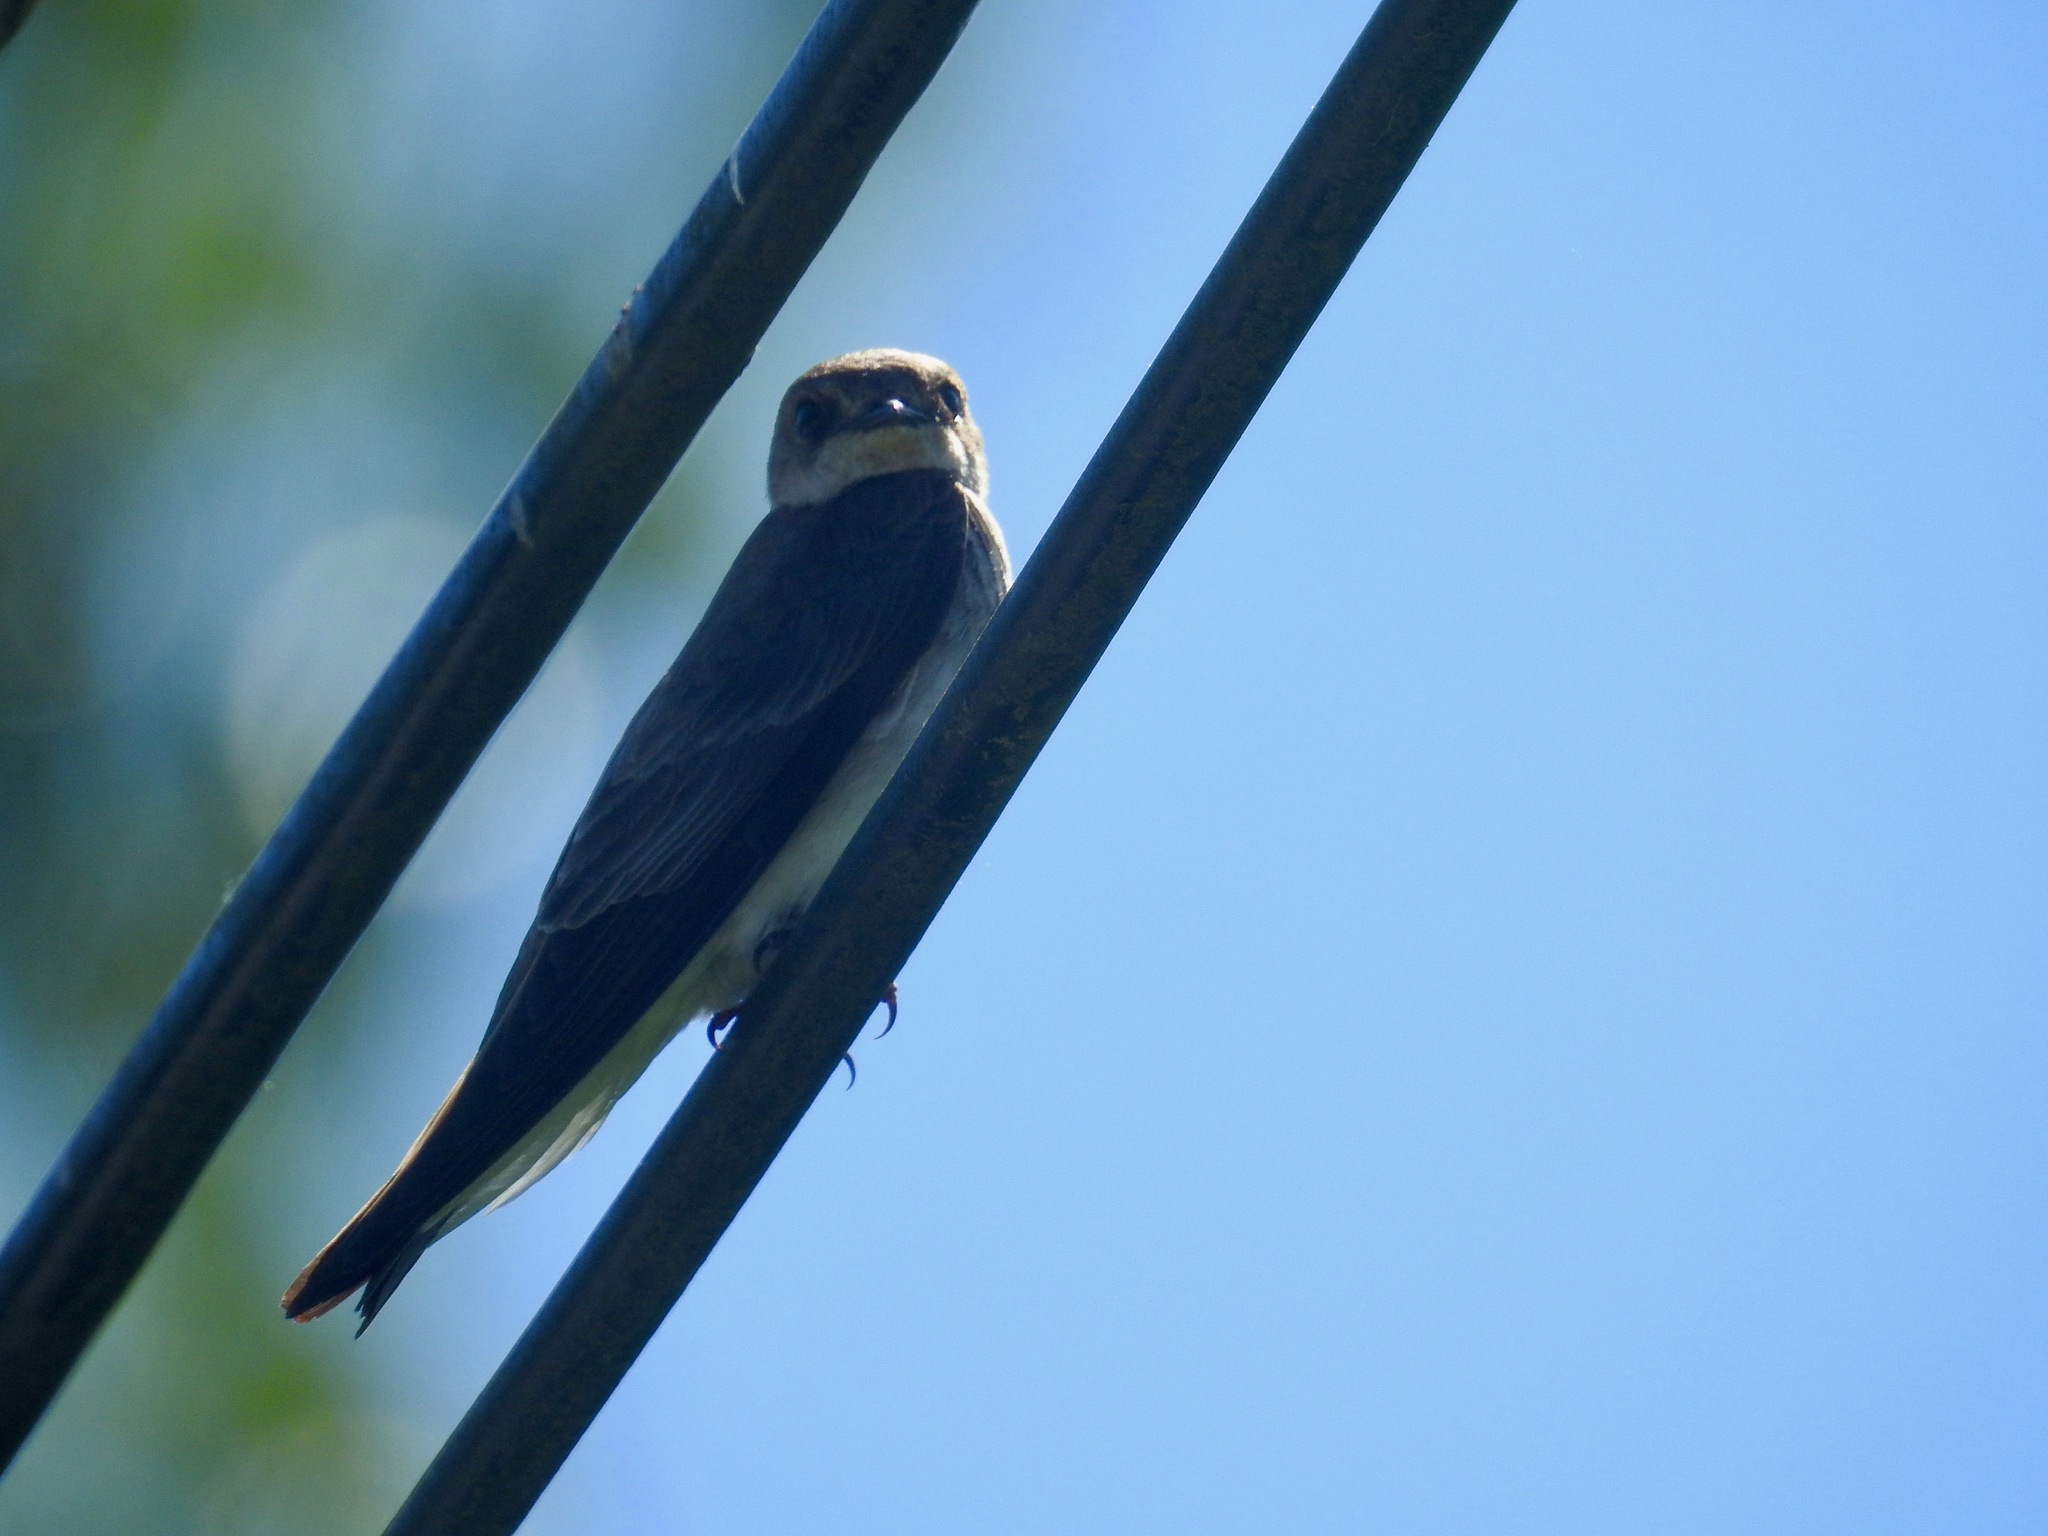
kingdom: Animalia
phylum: Chordata
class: Aves
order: Passeriformes
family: Hirundinidae
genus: Stelgidopteryx
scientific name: Stelgidopteryx serripennis
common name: Northern rough-winged swallow
